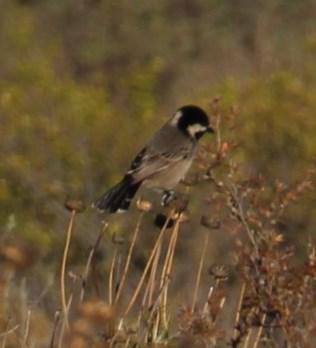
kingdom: Animalia
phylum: Chordata
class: Aves
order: Passeriformes
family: Paridae
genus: Parus
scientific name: Parus afer
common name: Grey tit
